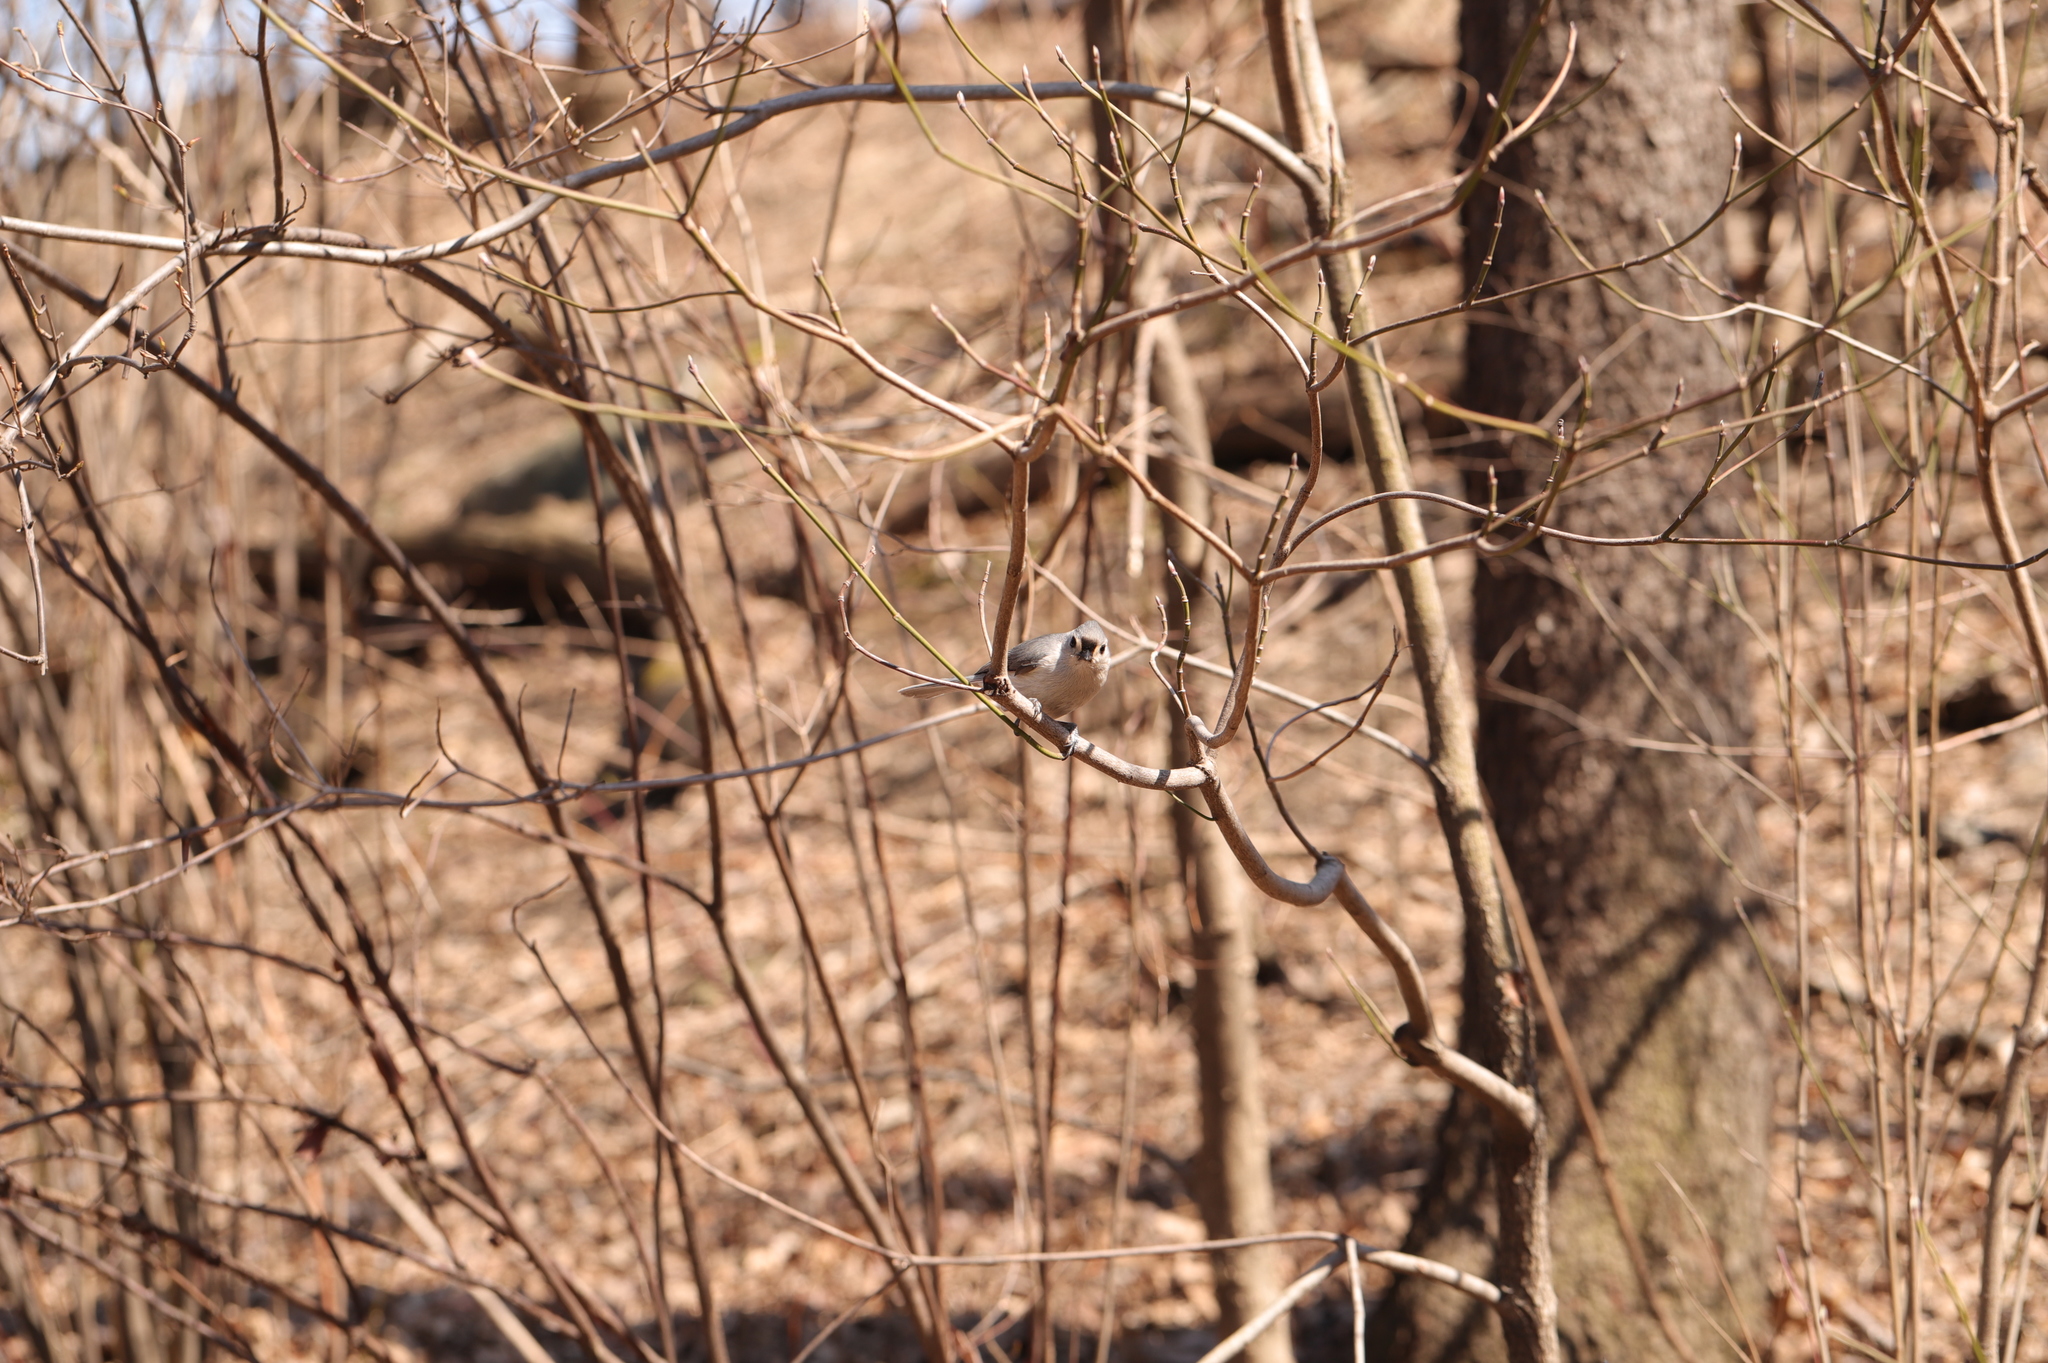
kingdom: Animalia
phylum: Chordata
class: Aves
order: Passeriformes
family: Paridae
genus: Baeolophus
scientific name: Baeolophus bicolor
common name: Tufted titmouse
